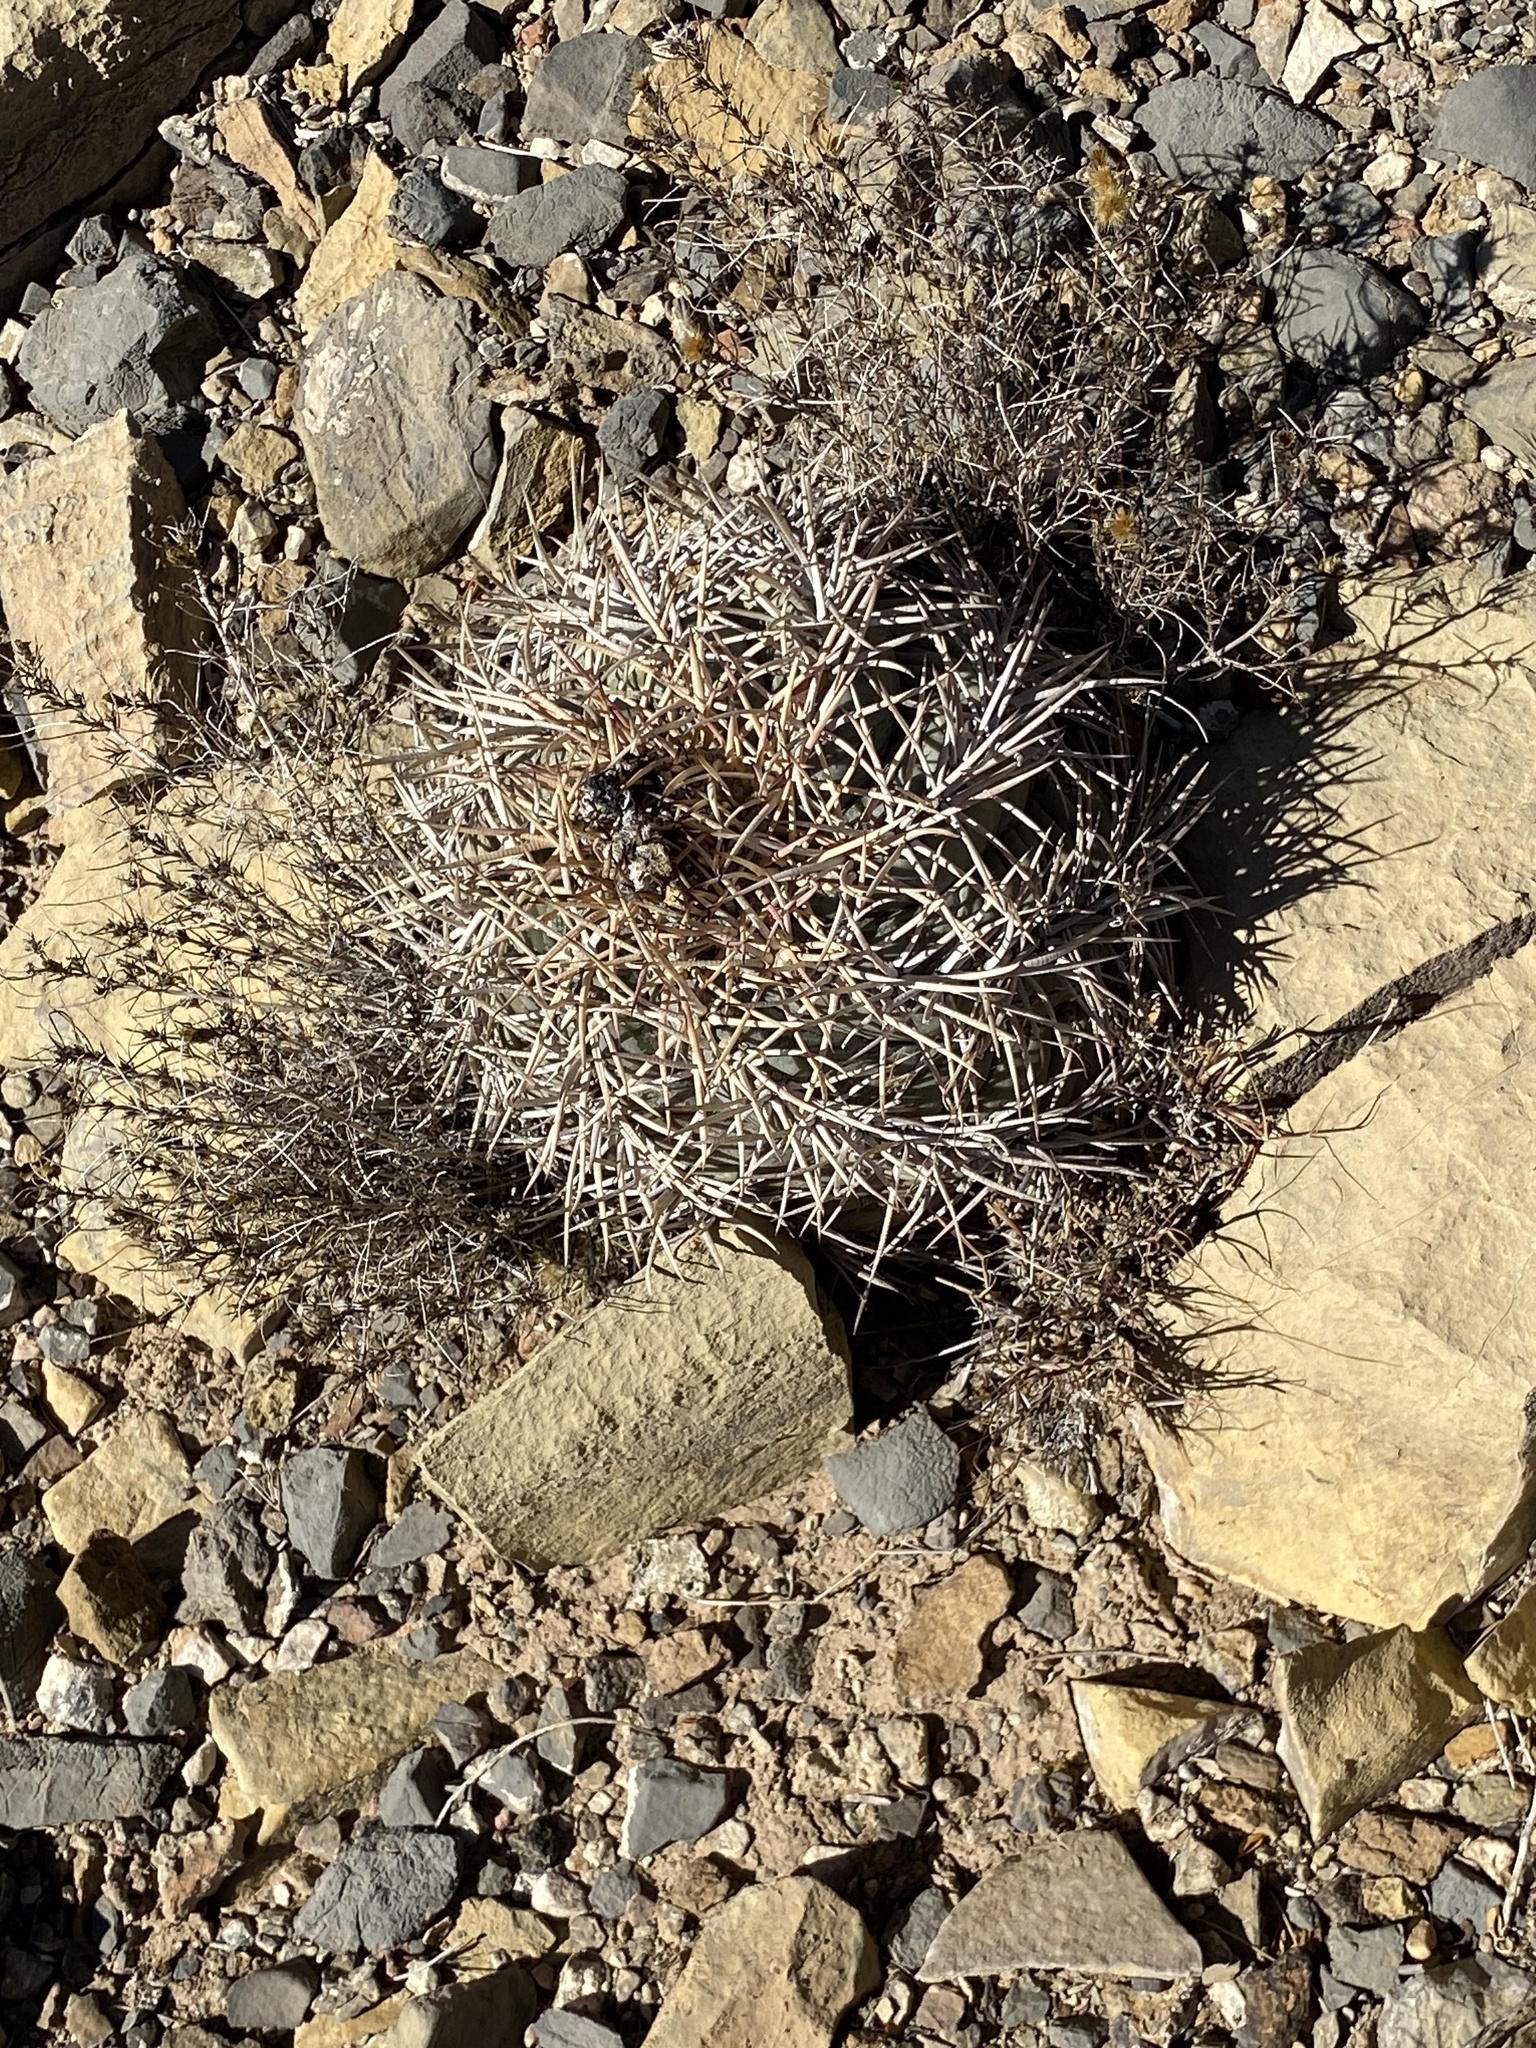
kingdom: Plantae
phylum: Tracheophyta
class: Magnoliopsida
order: Caryophyllales
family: Cactaceae
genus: Echinocactus
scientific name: Echinocactus horizonthalonius
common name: Devilshead
